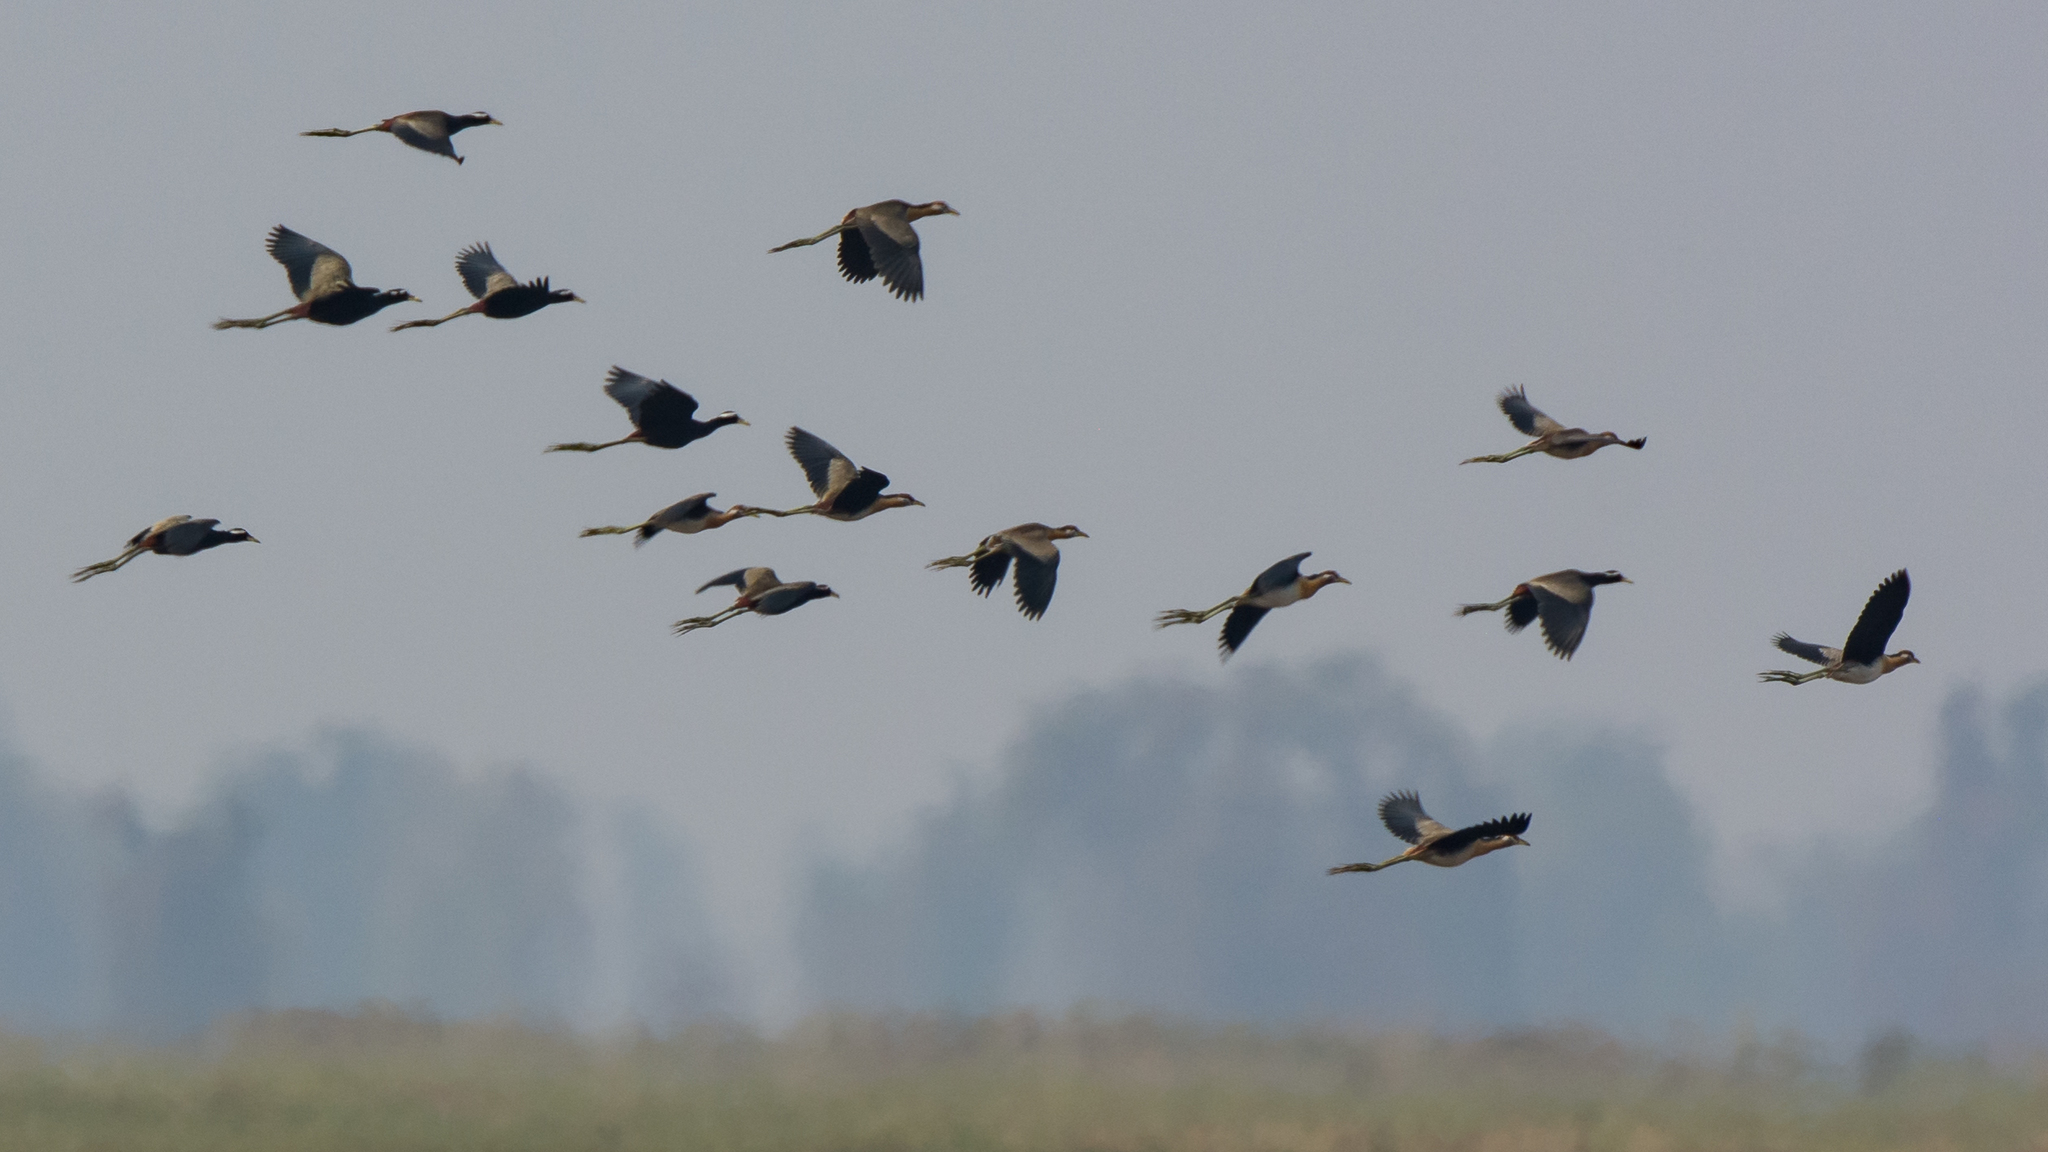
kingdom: Animalia
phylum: Chordata
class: Aves
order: Charadriiformes
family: Jacanidae
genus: Metopidius
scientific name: Metopidius indicus
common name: Bronze-winged jacana
